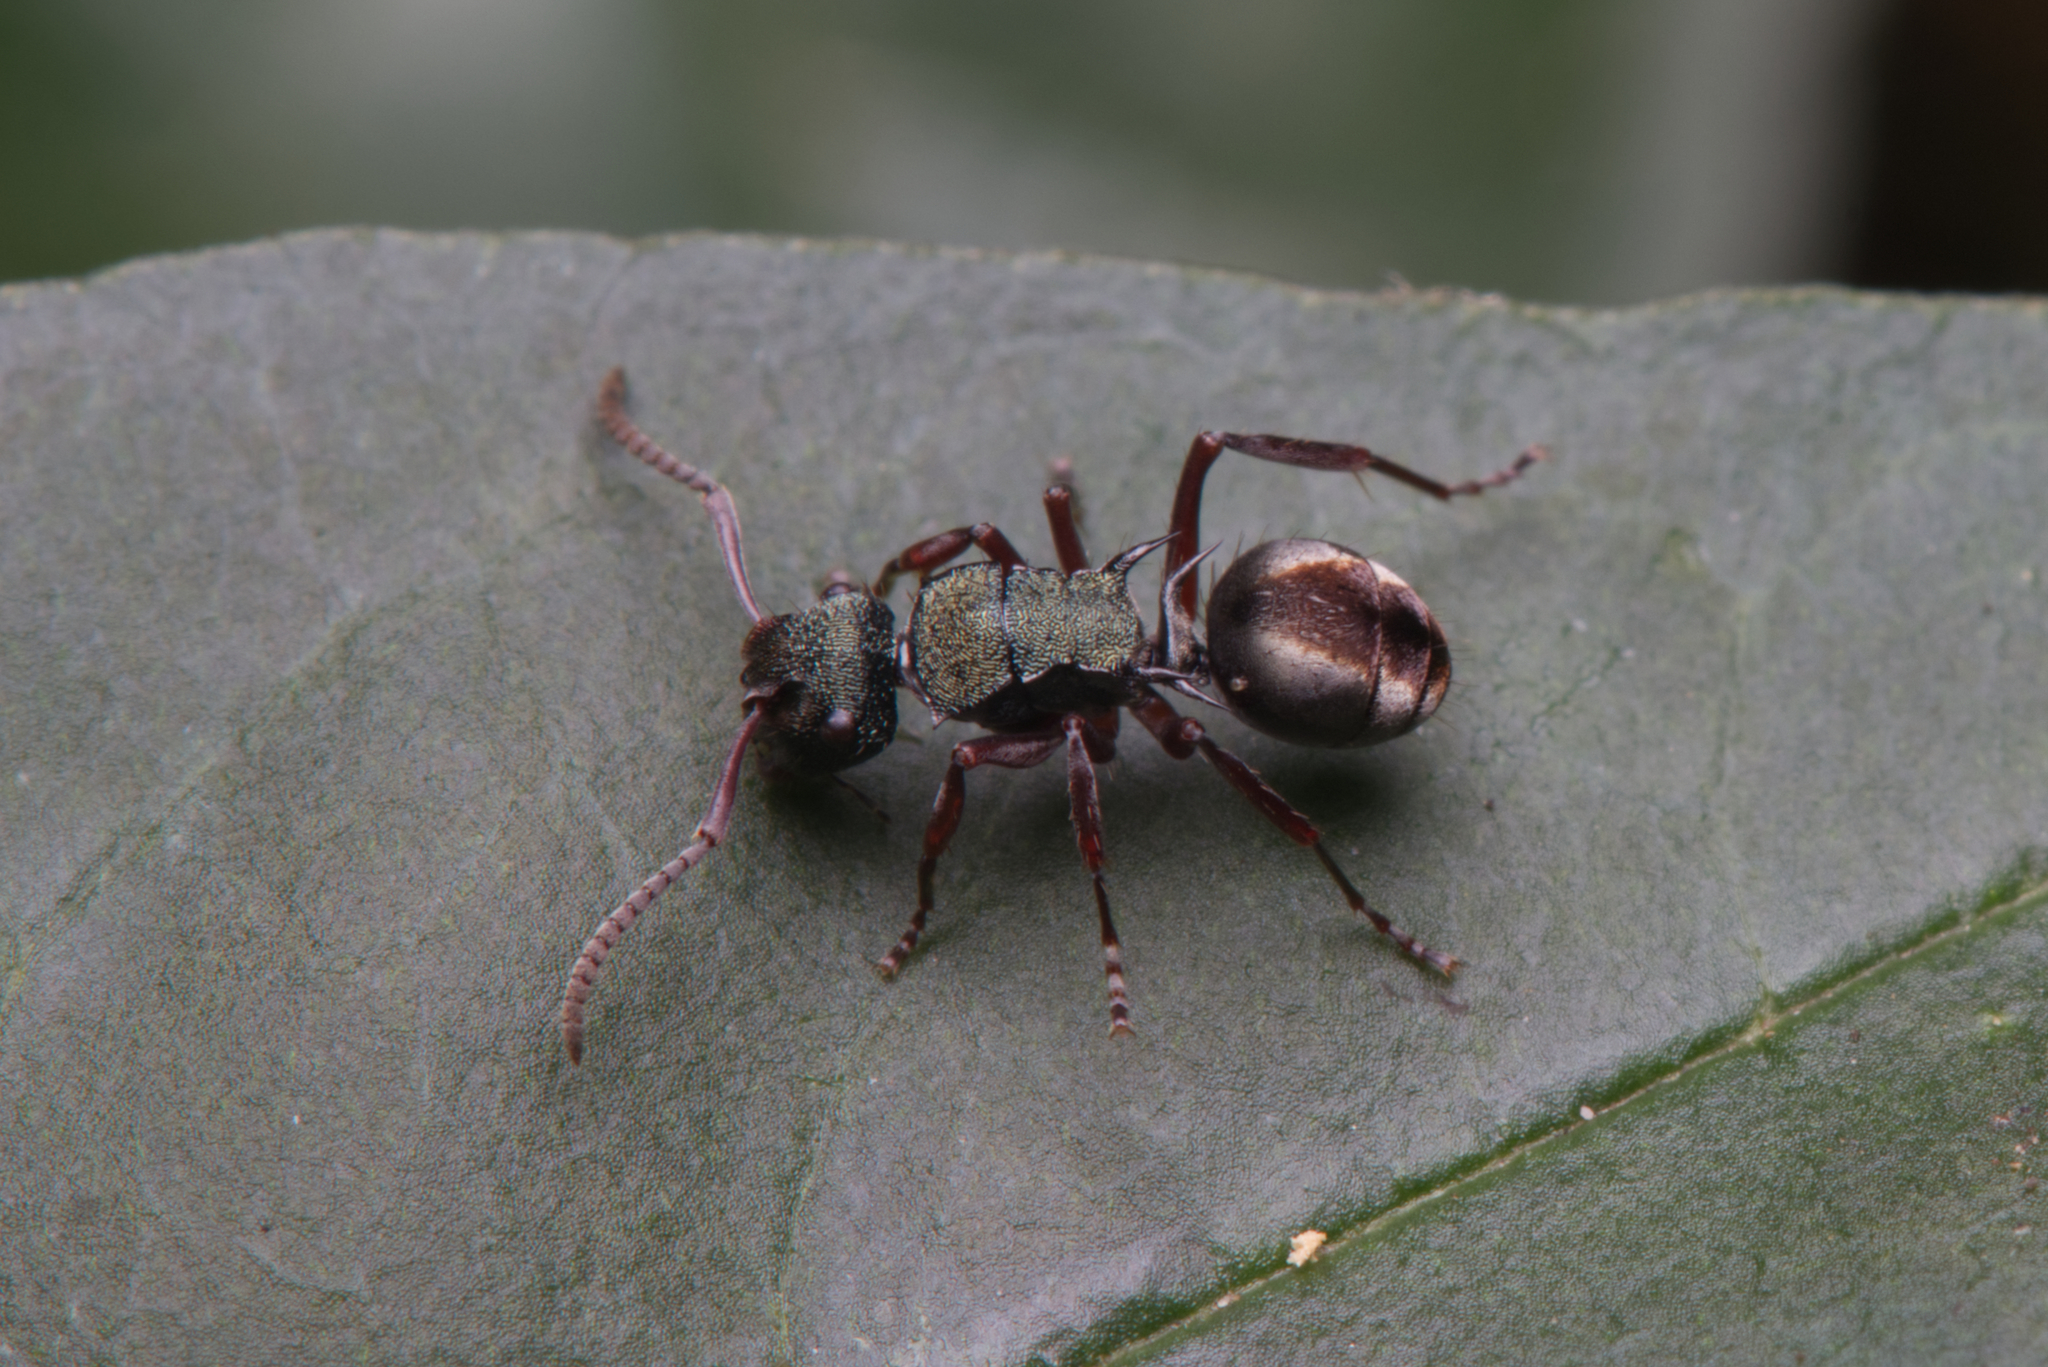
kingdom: Animalia
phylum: Arthropoda
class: Insecta
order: Hymenoptera
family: Formicidae
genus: Polyrhachis
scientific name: Polyrhachis hookeri
